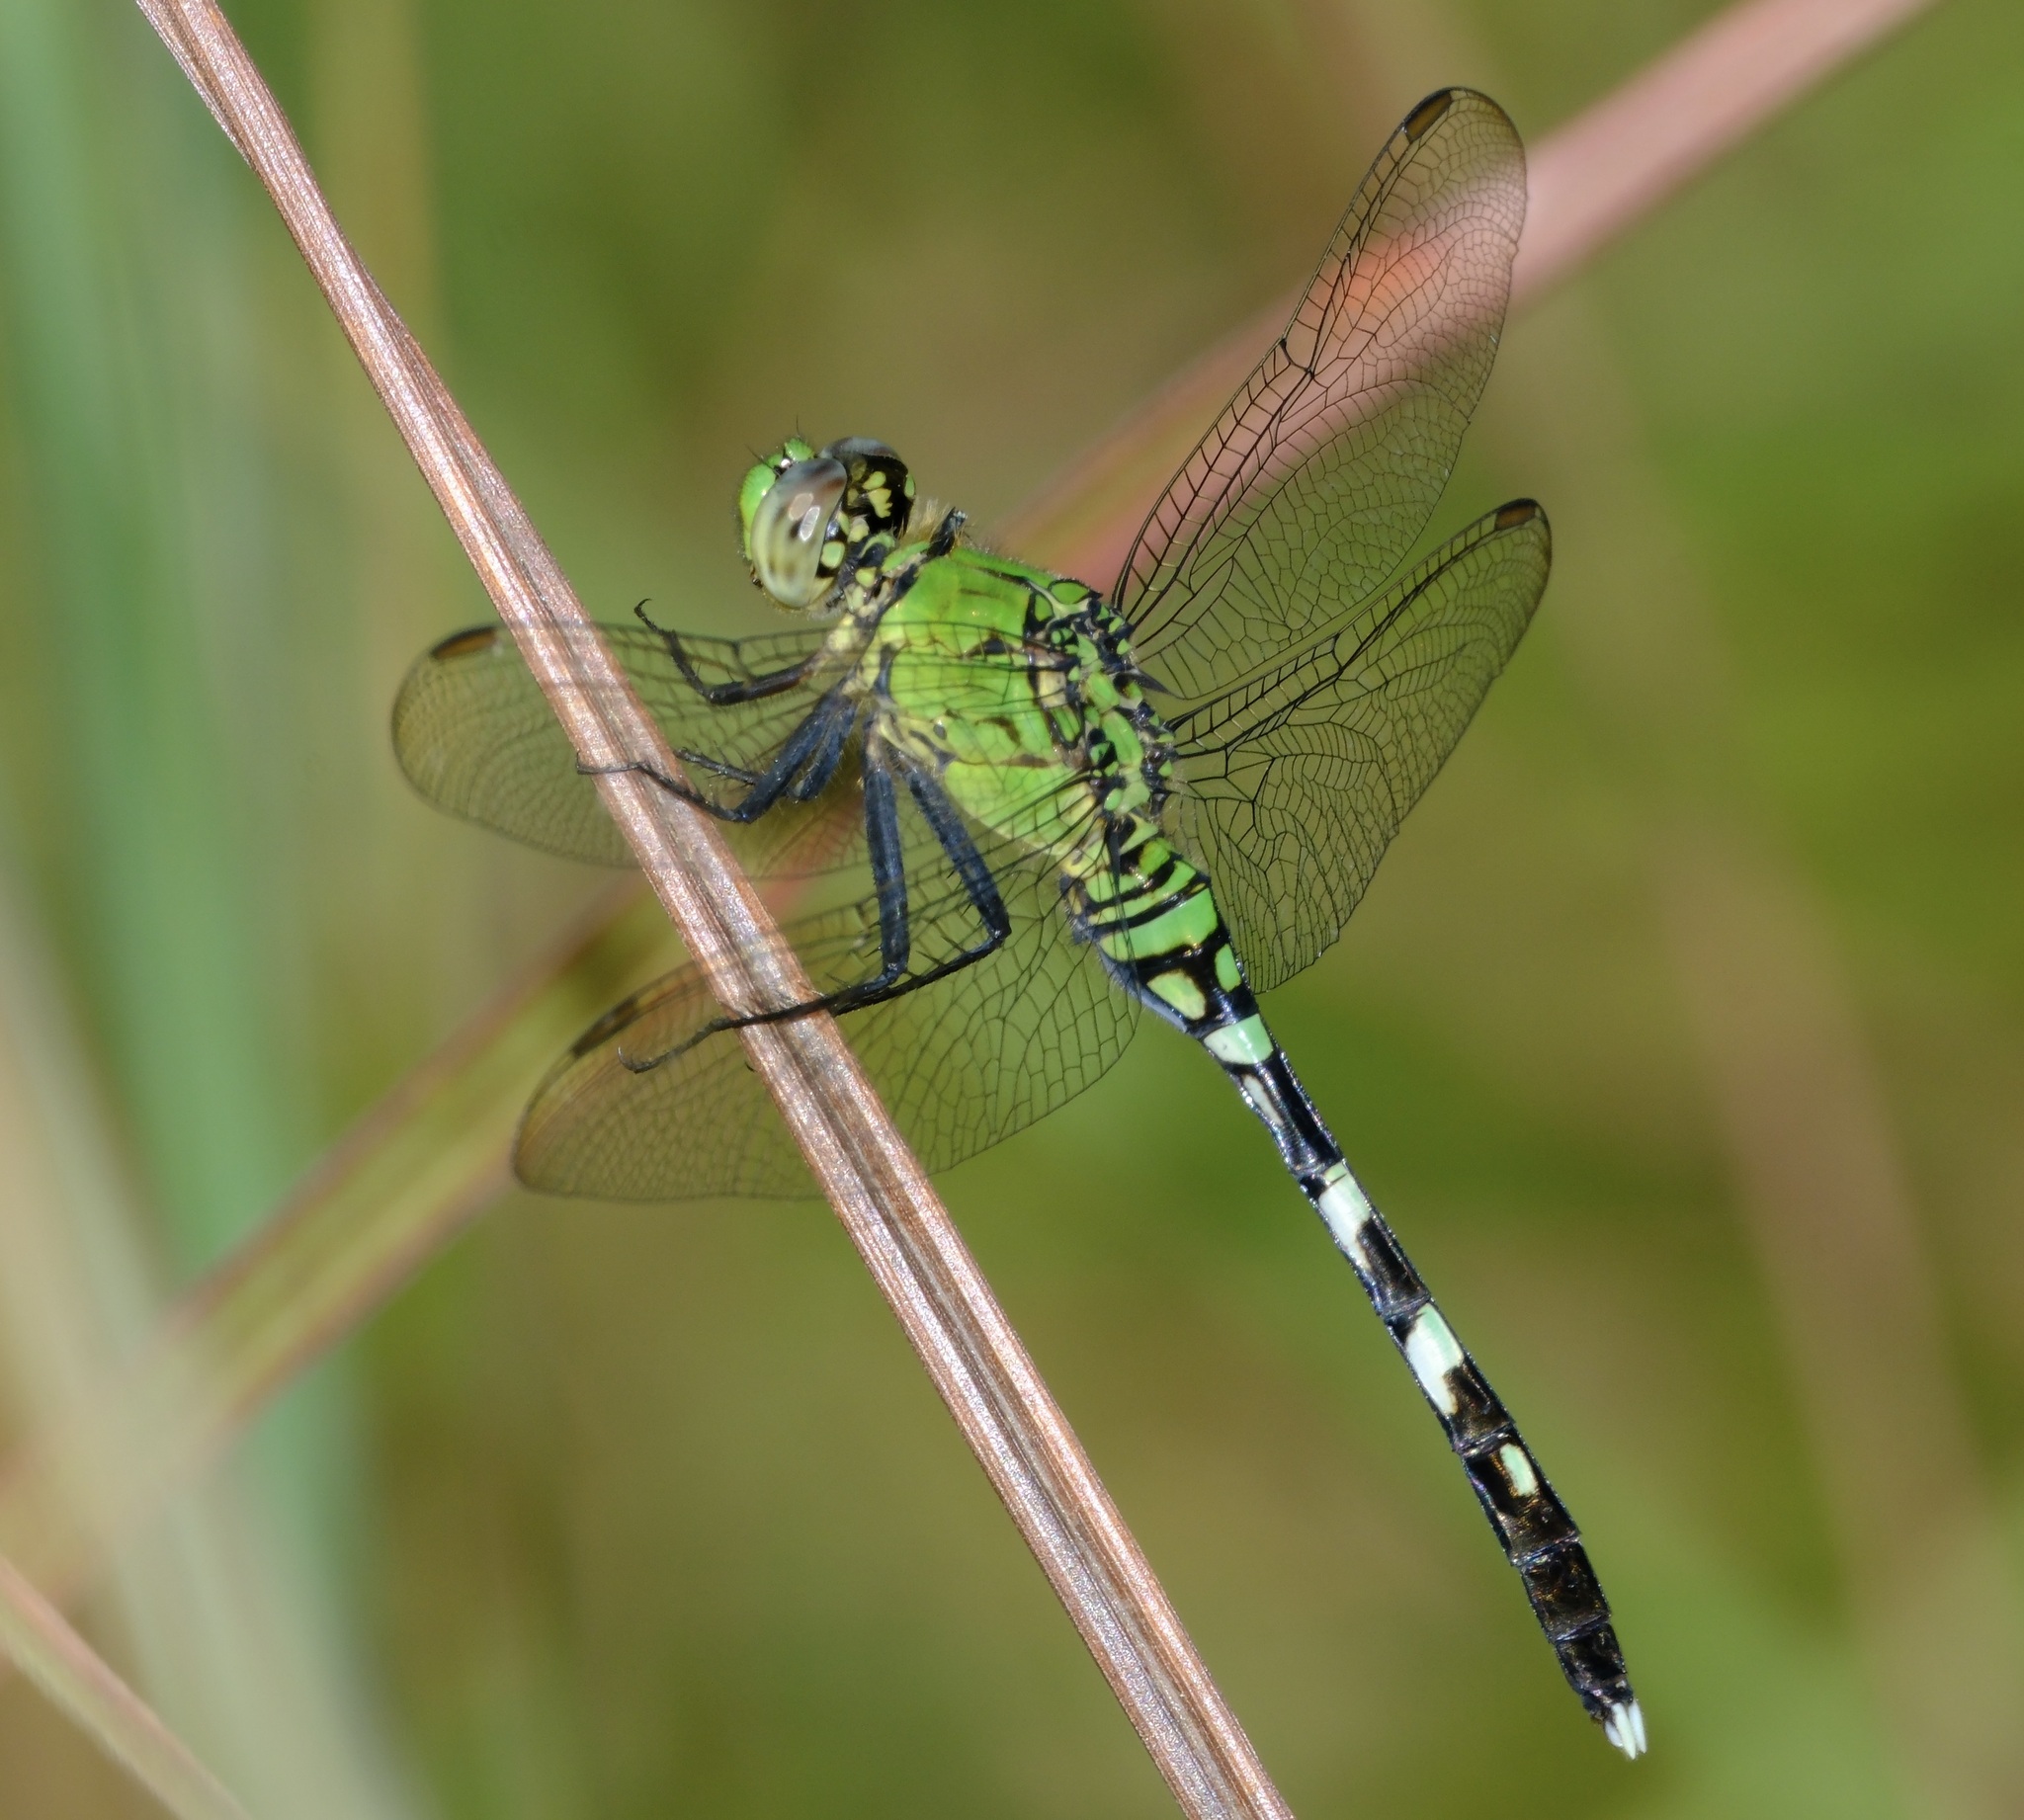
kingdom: Animalia
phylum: Arthropoda
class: Insecta
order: Odonata
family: Libellulidae
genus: Erythemis
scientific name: Erythemis simplicicollis
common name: Eastern pondhawk
